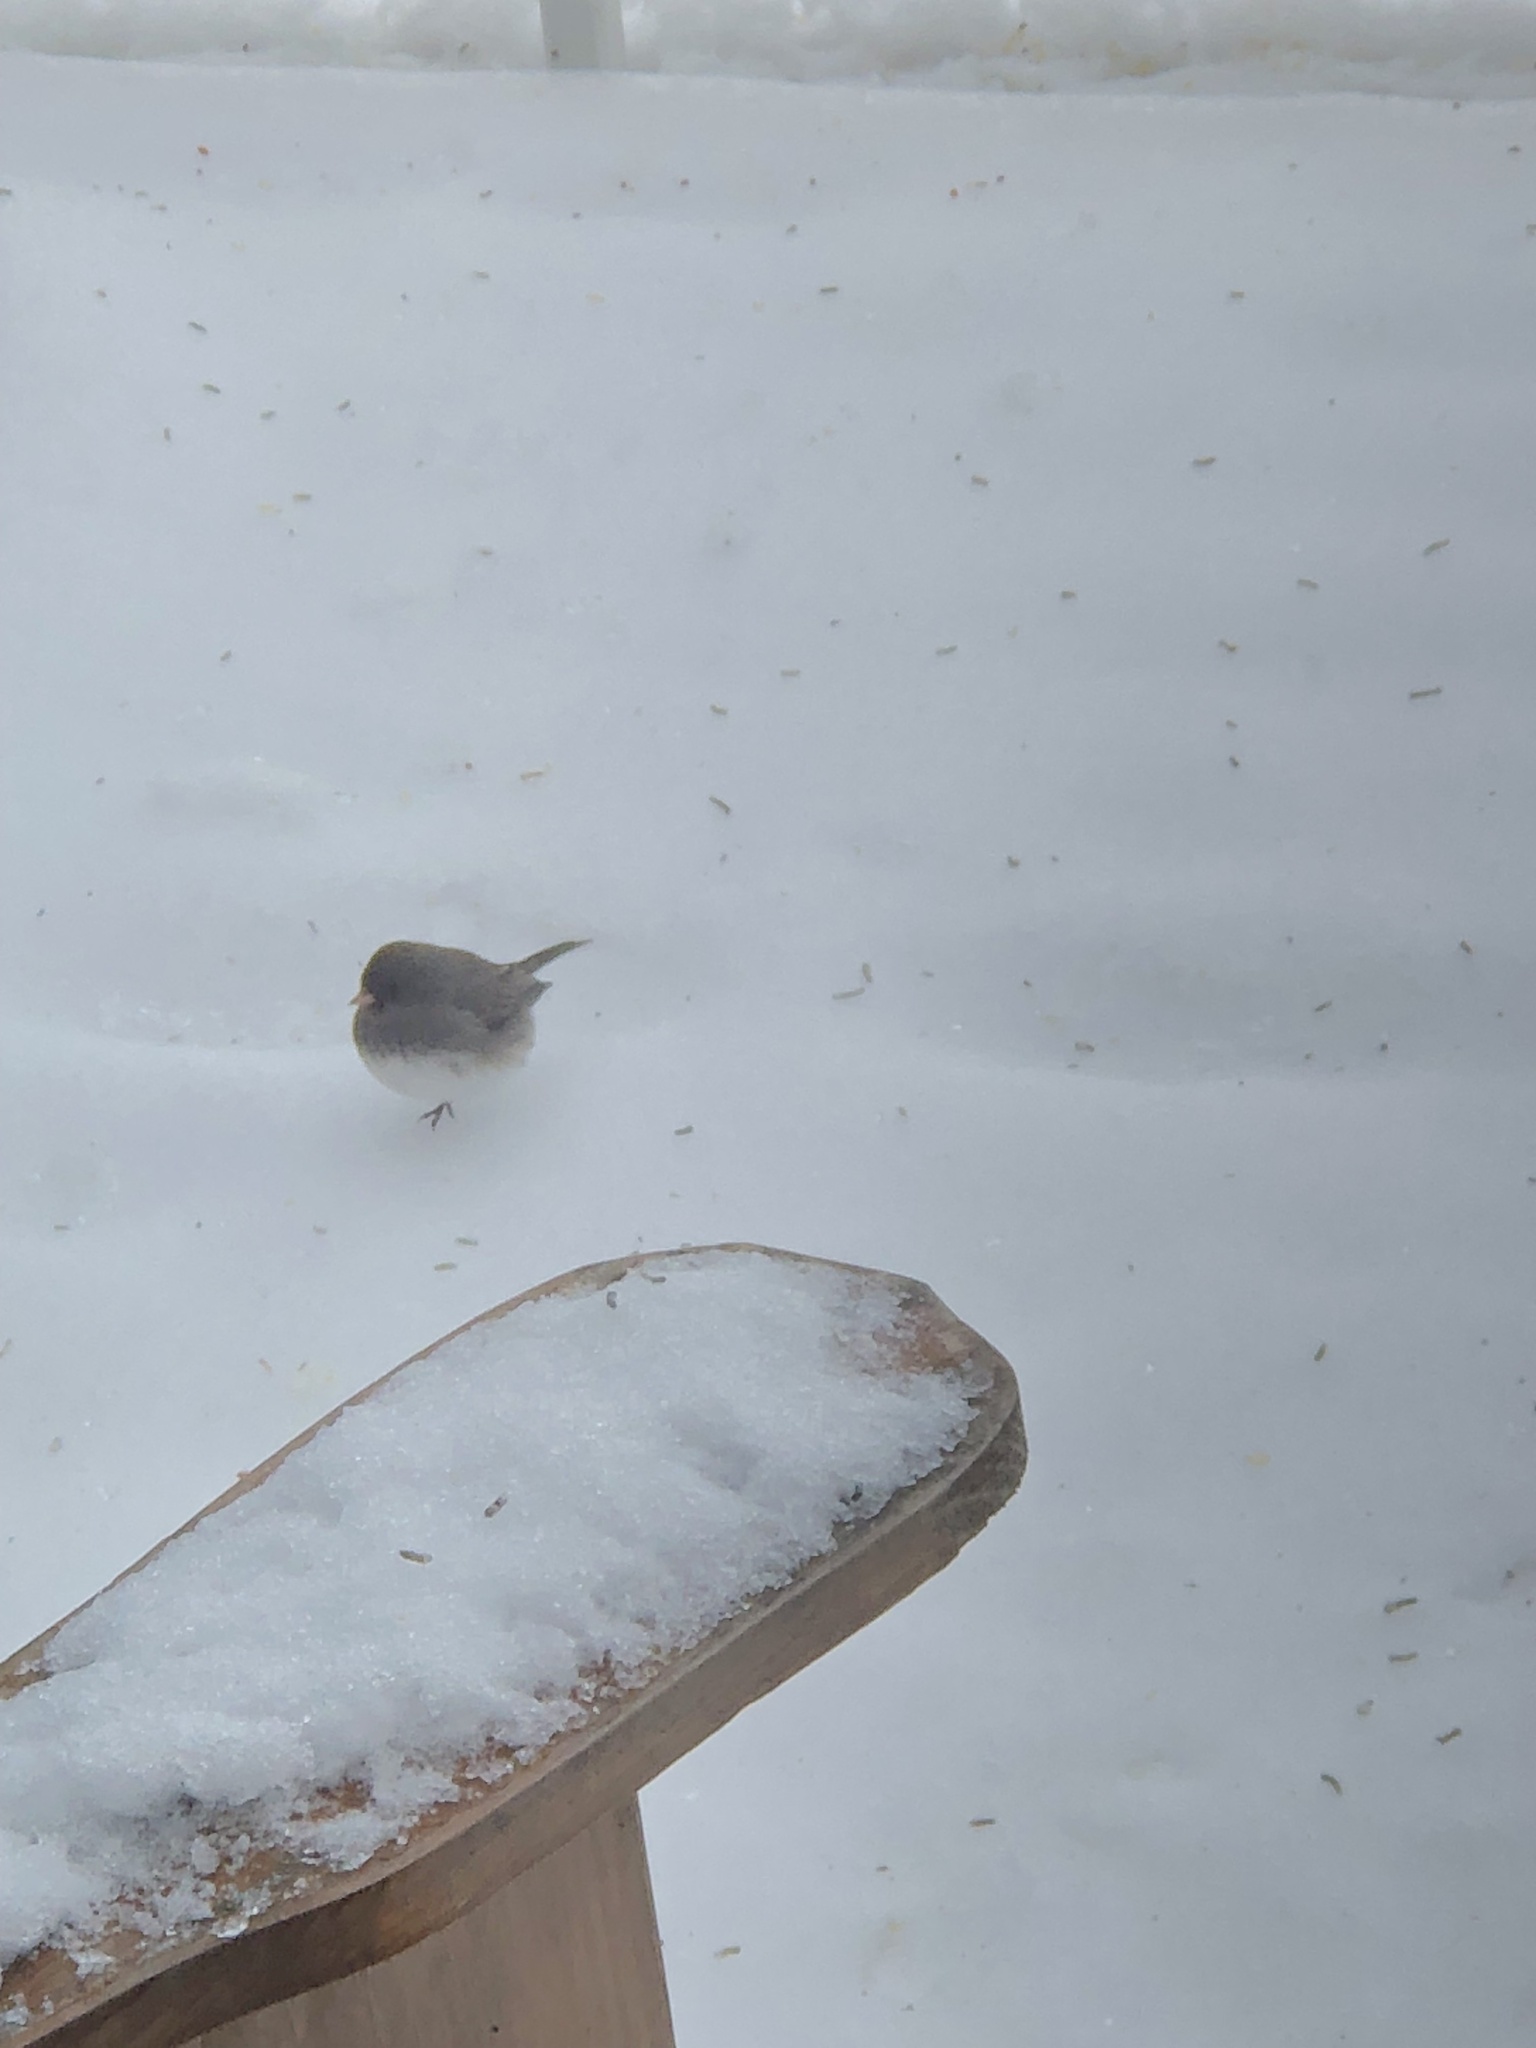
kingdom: Animalia
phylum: Chordata
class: Aves
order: Passeriformes
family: Passerellidae
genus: Junco
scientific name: Junco hyemalis
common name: Dark-eyed junco
